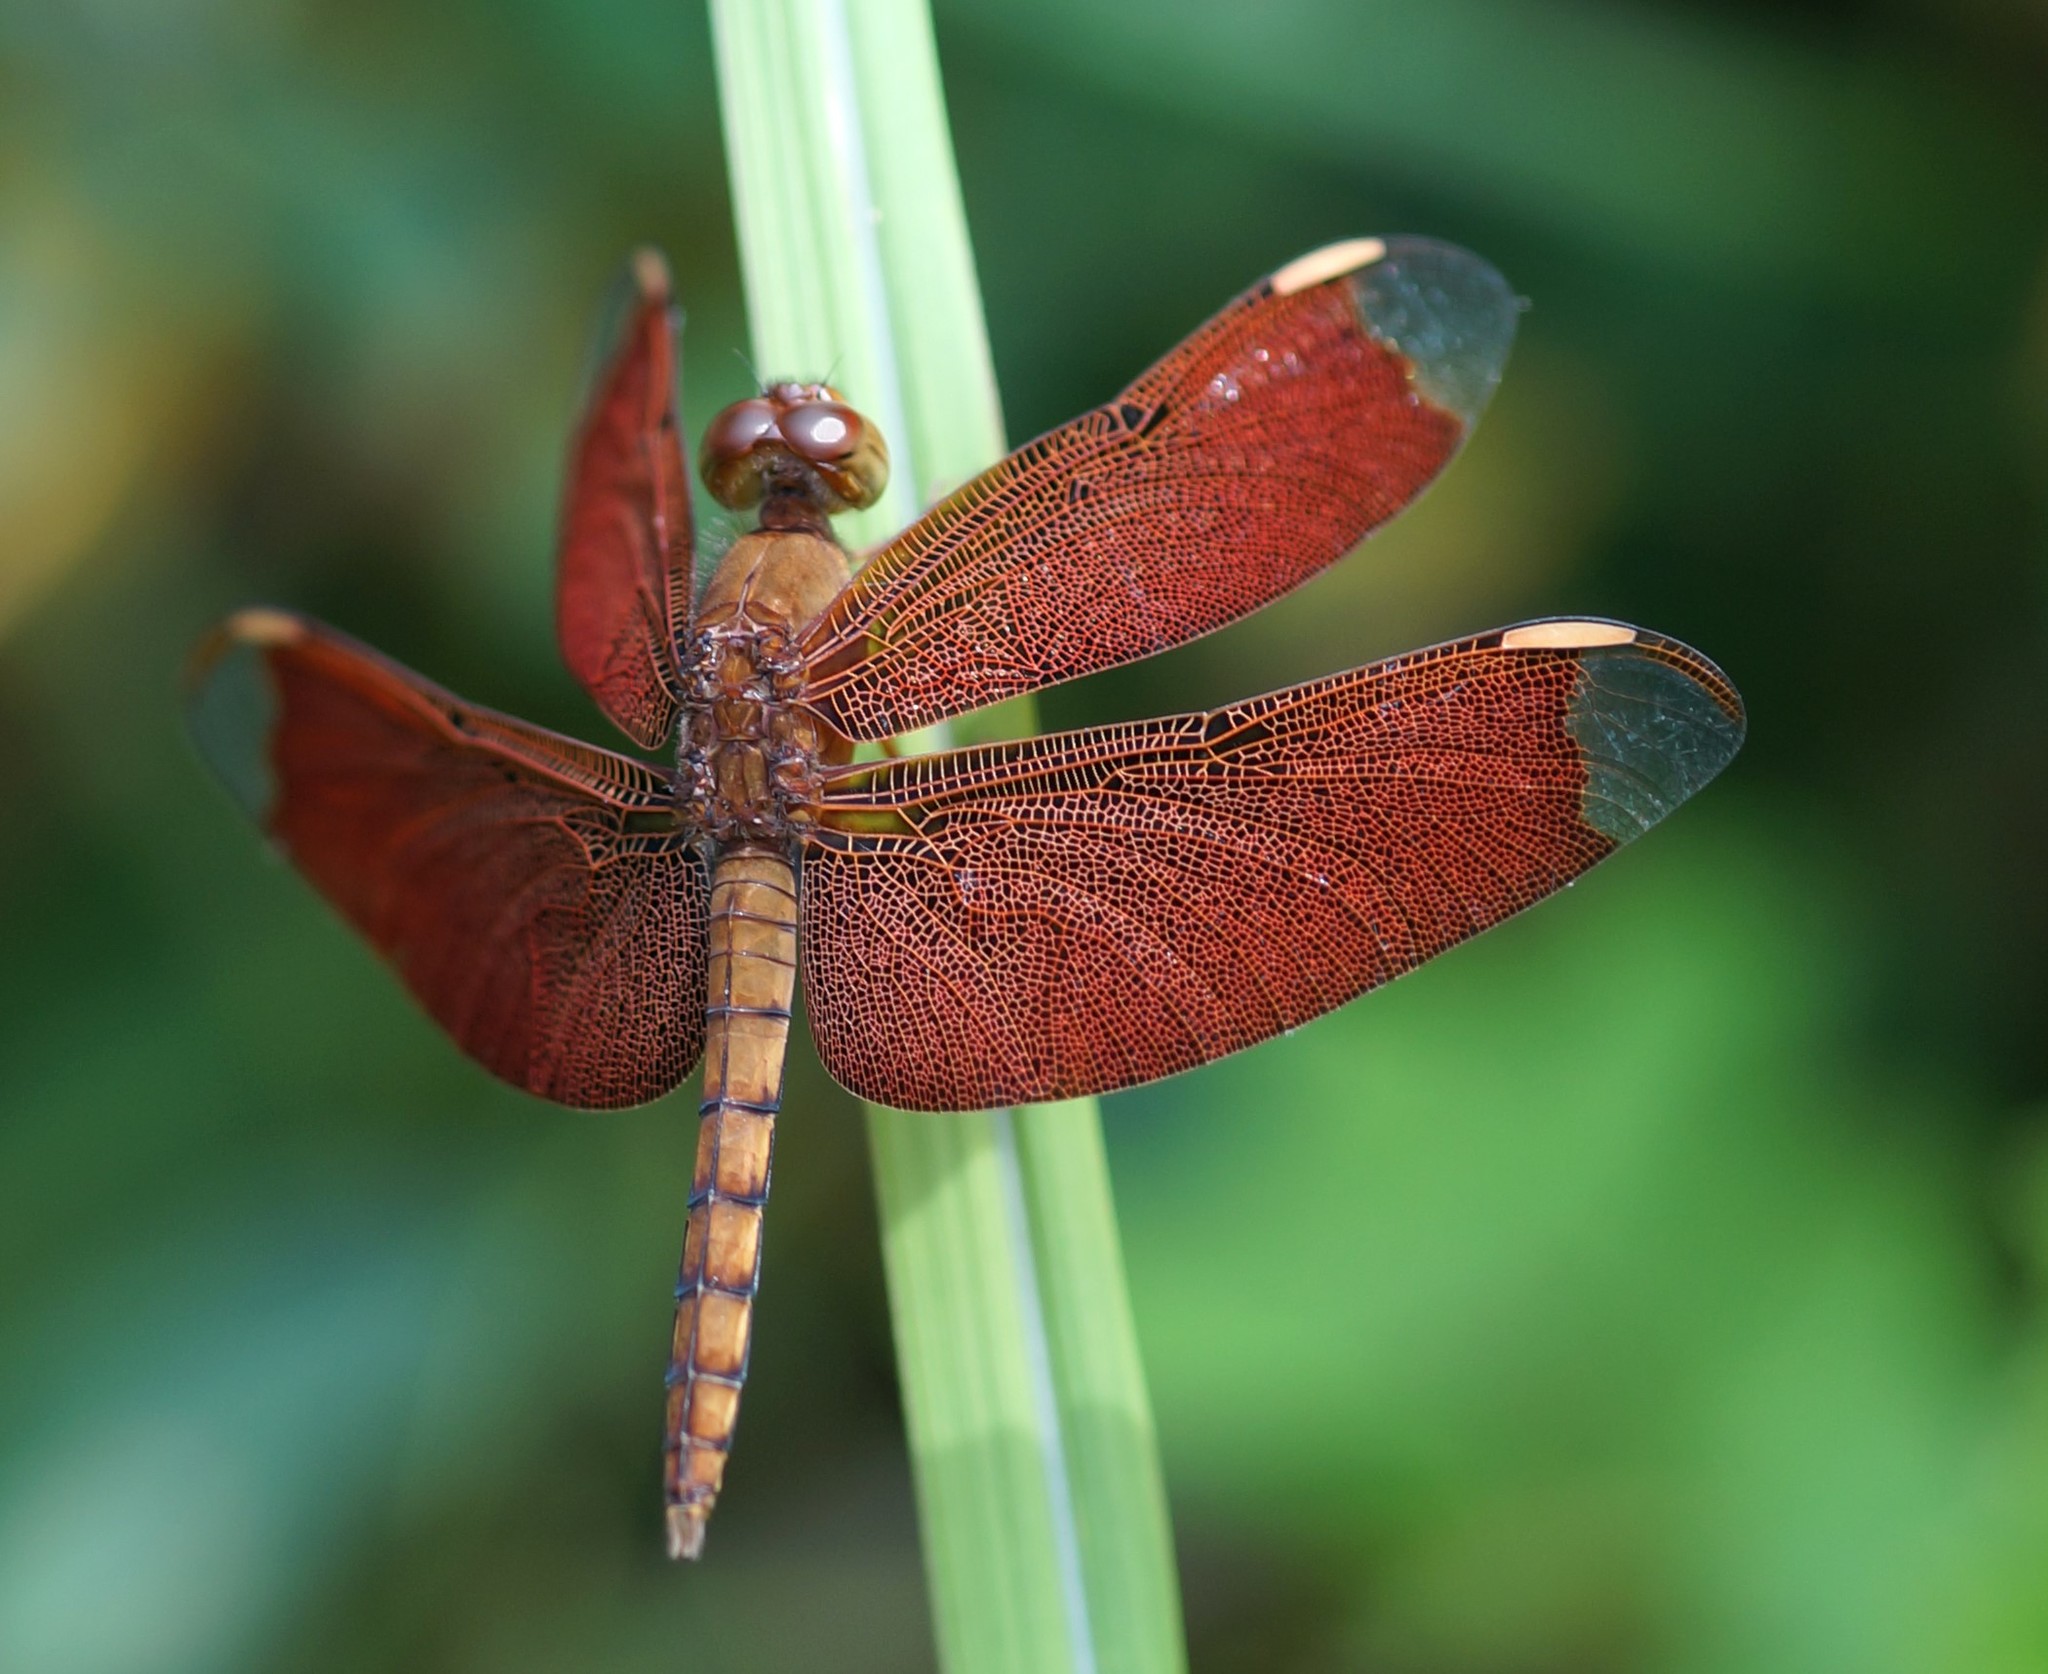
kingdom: Animalia
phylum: Arthropoda
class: Insecta
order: Odonata
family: Libellulidae
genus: Neurothemis
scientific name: Neurothemis fulvia
